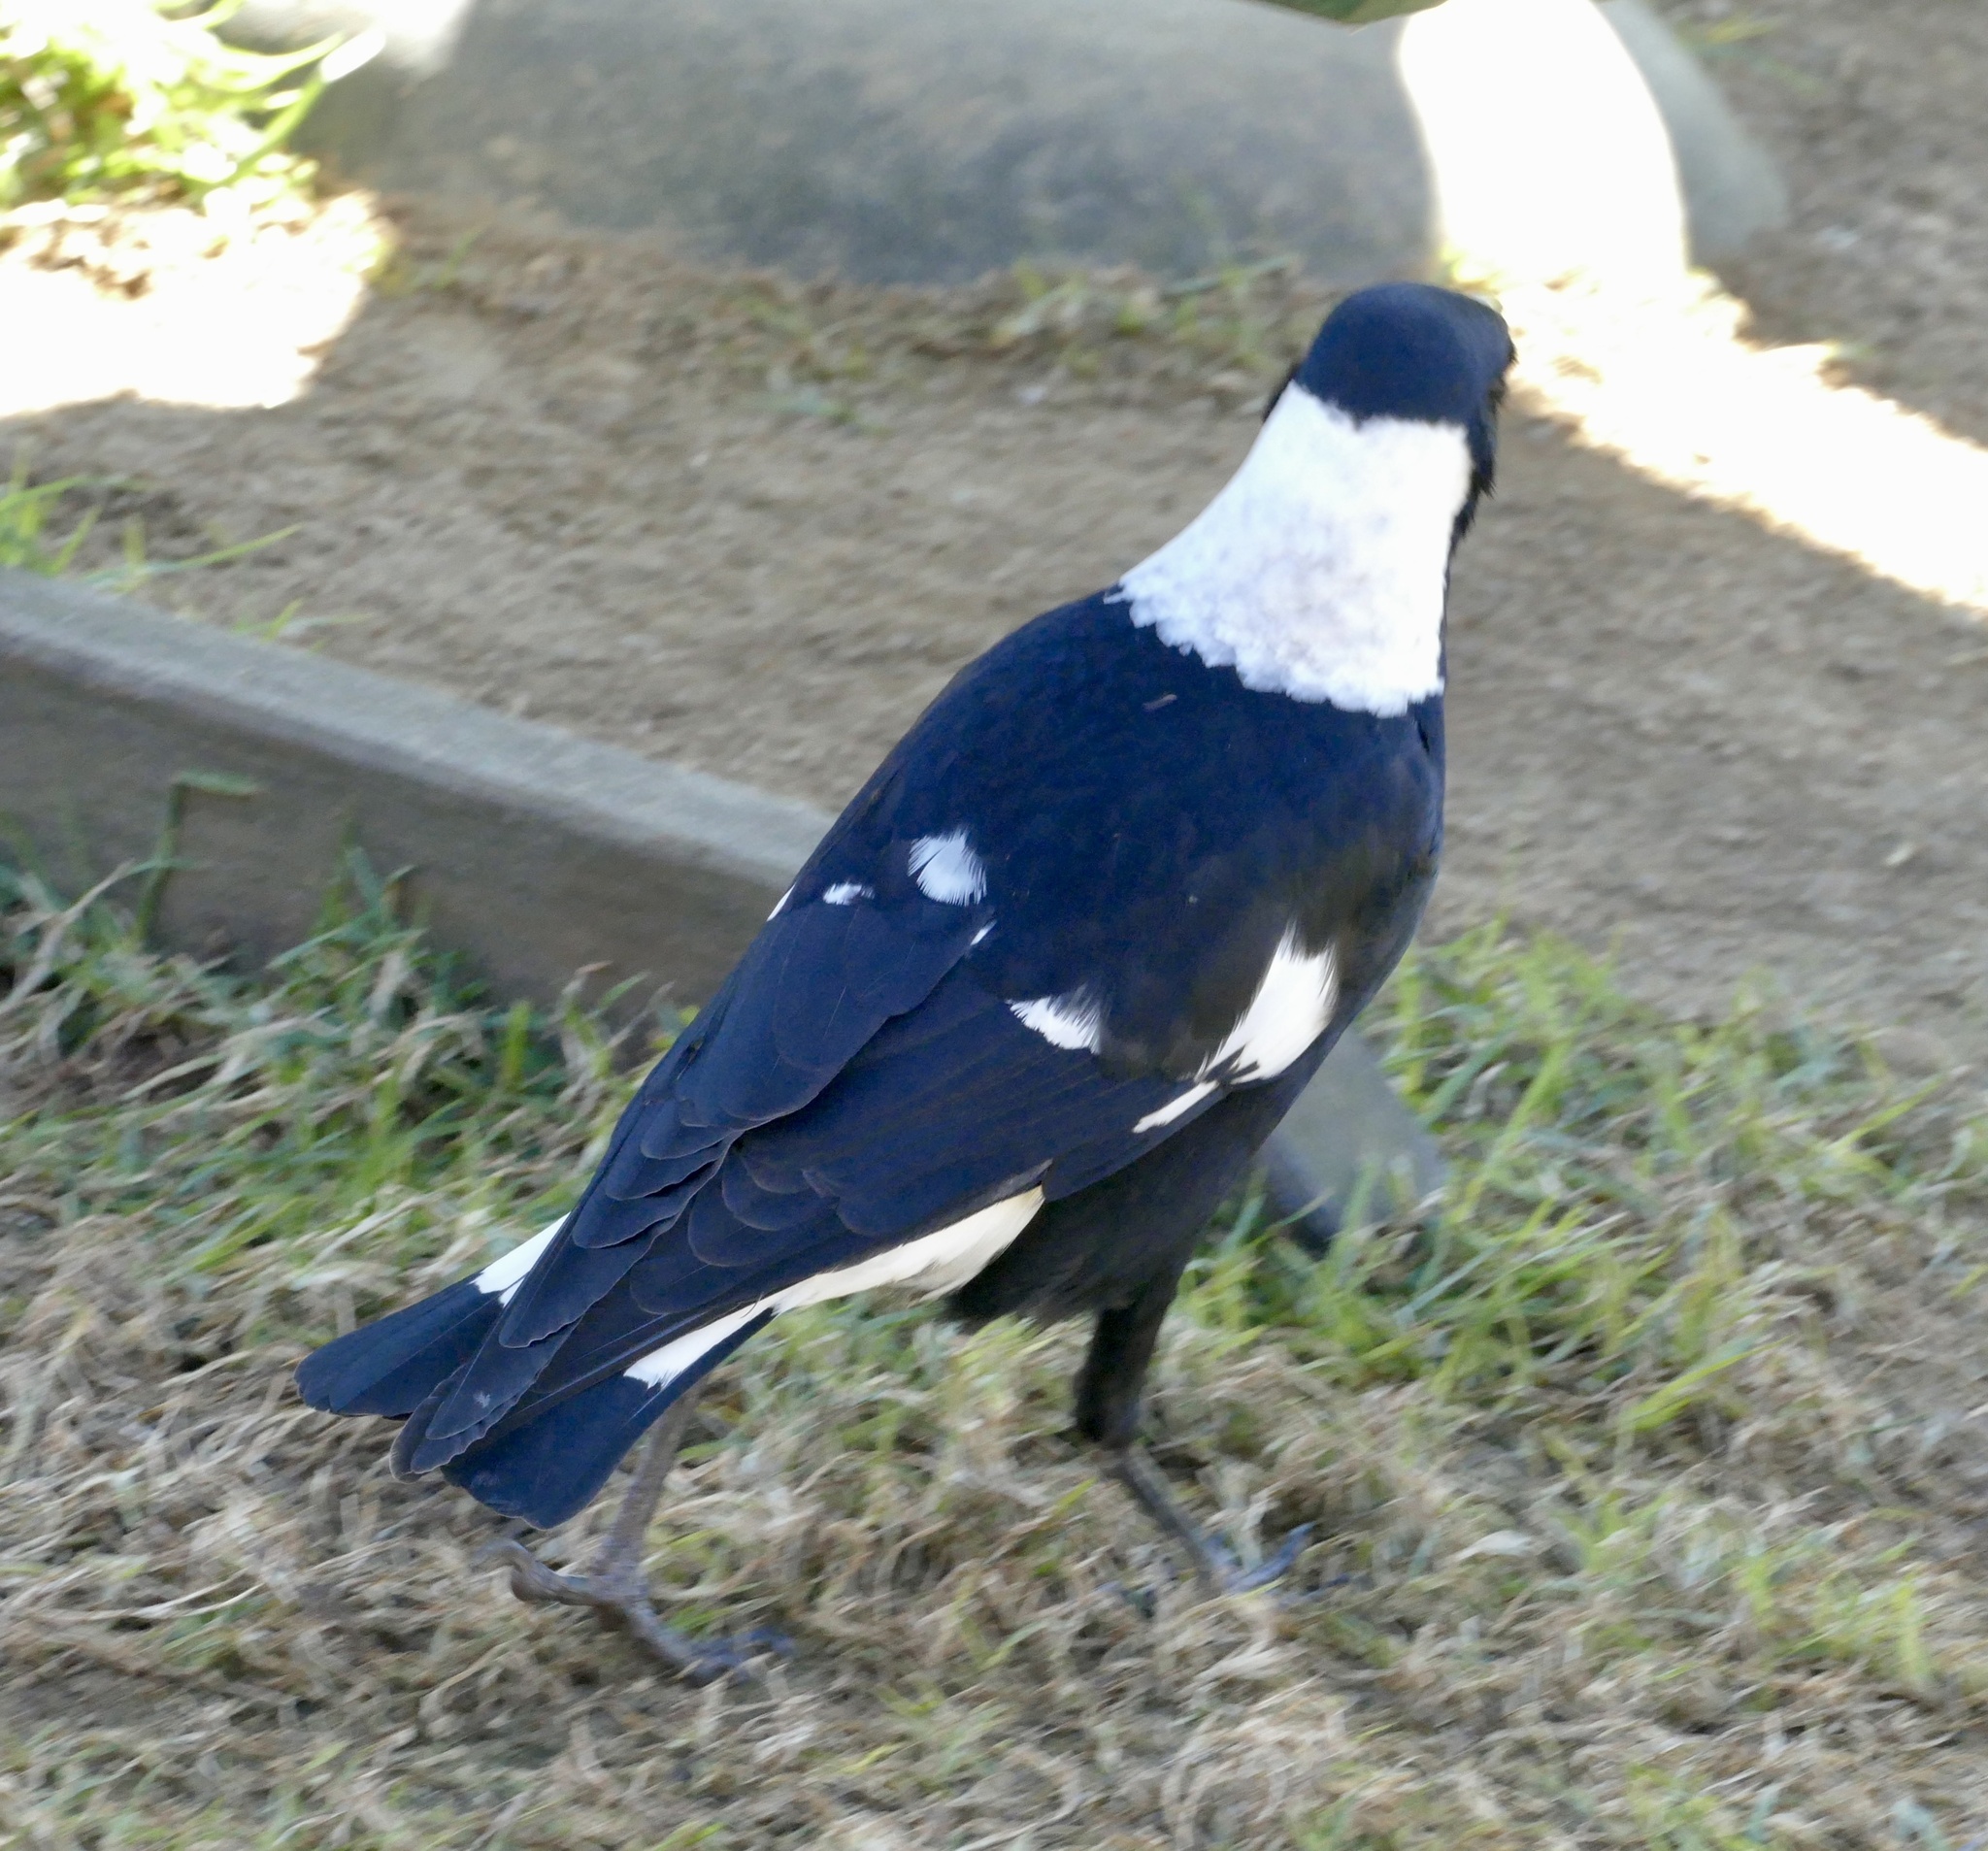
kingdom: Animalia
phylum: Chordata
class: Aves
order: Passeriformes
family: Cracticidae
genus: Gymnorhina
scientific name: Gymnorhina tibicen
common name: Australian magpie
